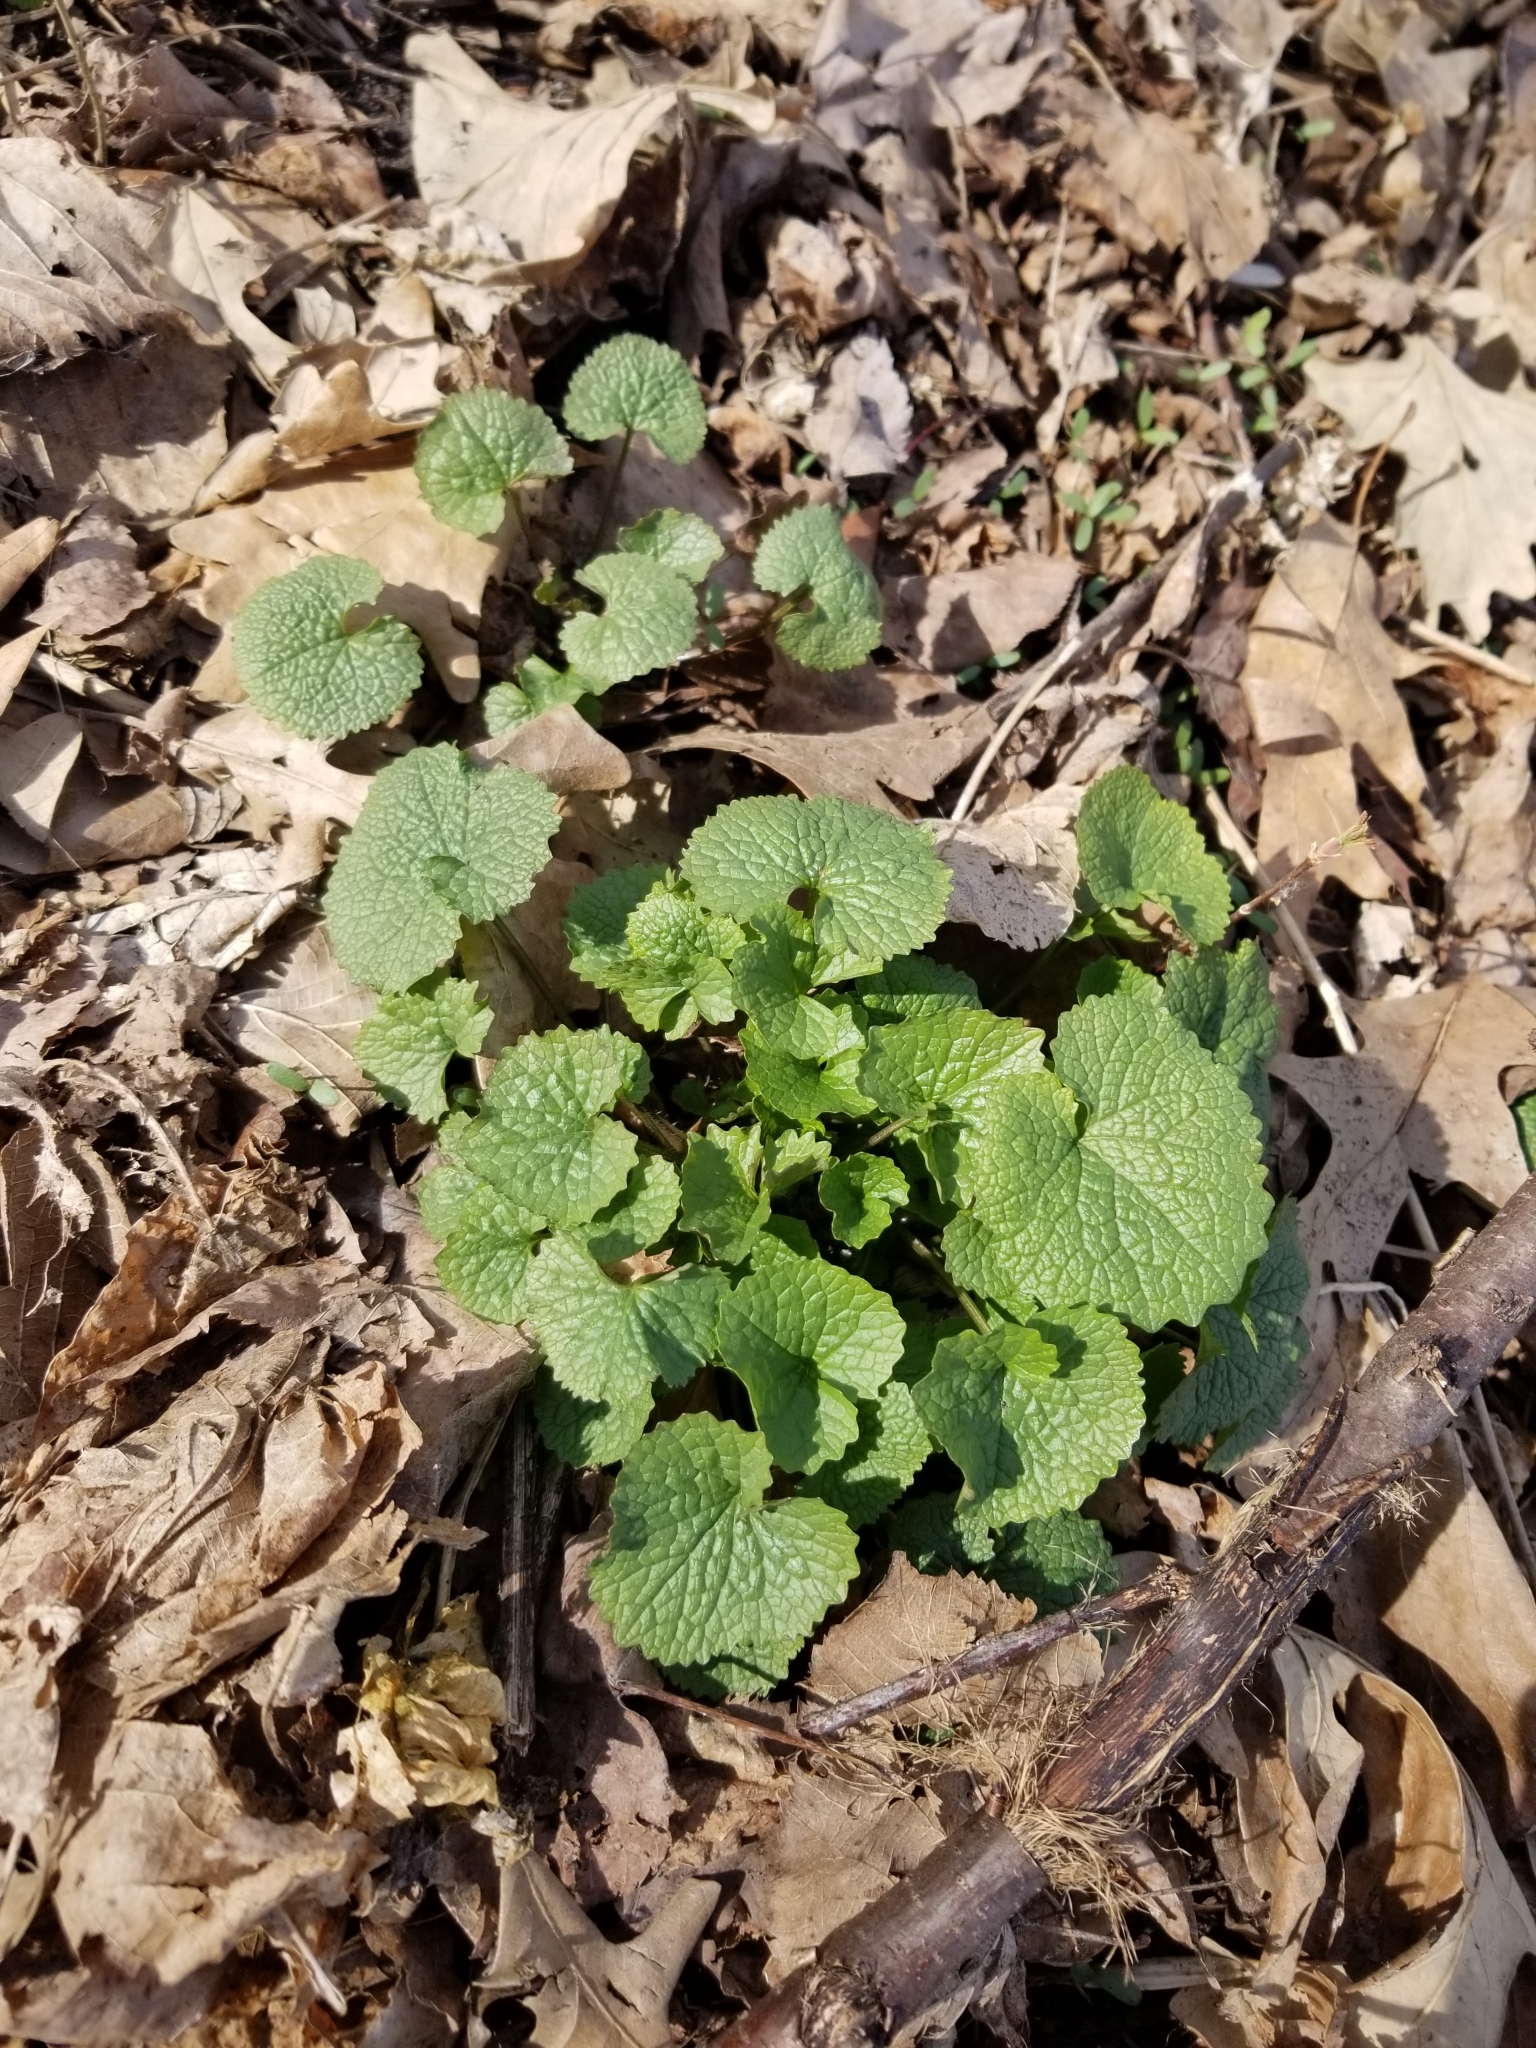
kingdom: Plantae
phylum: Tracheophyta
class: Magnoliopsida
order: Brassicales
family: Brassicaceae
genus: Alliaria
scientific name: Alliaria petiolata
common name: Garlic mustard
